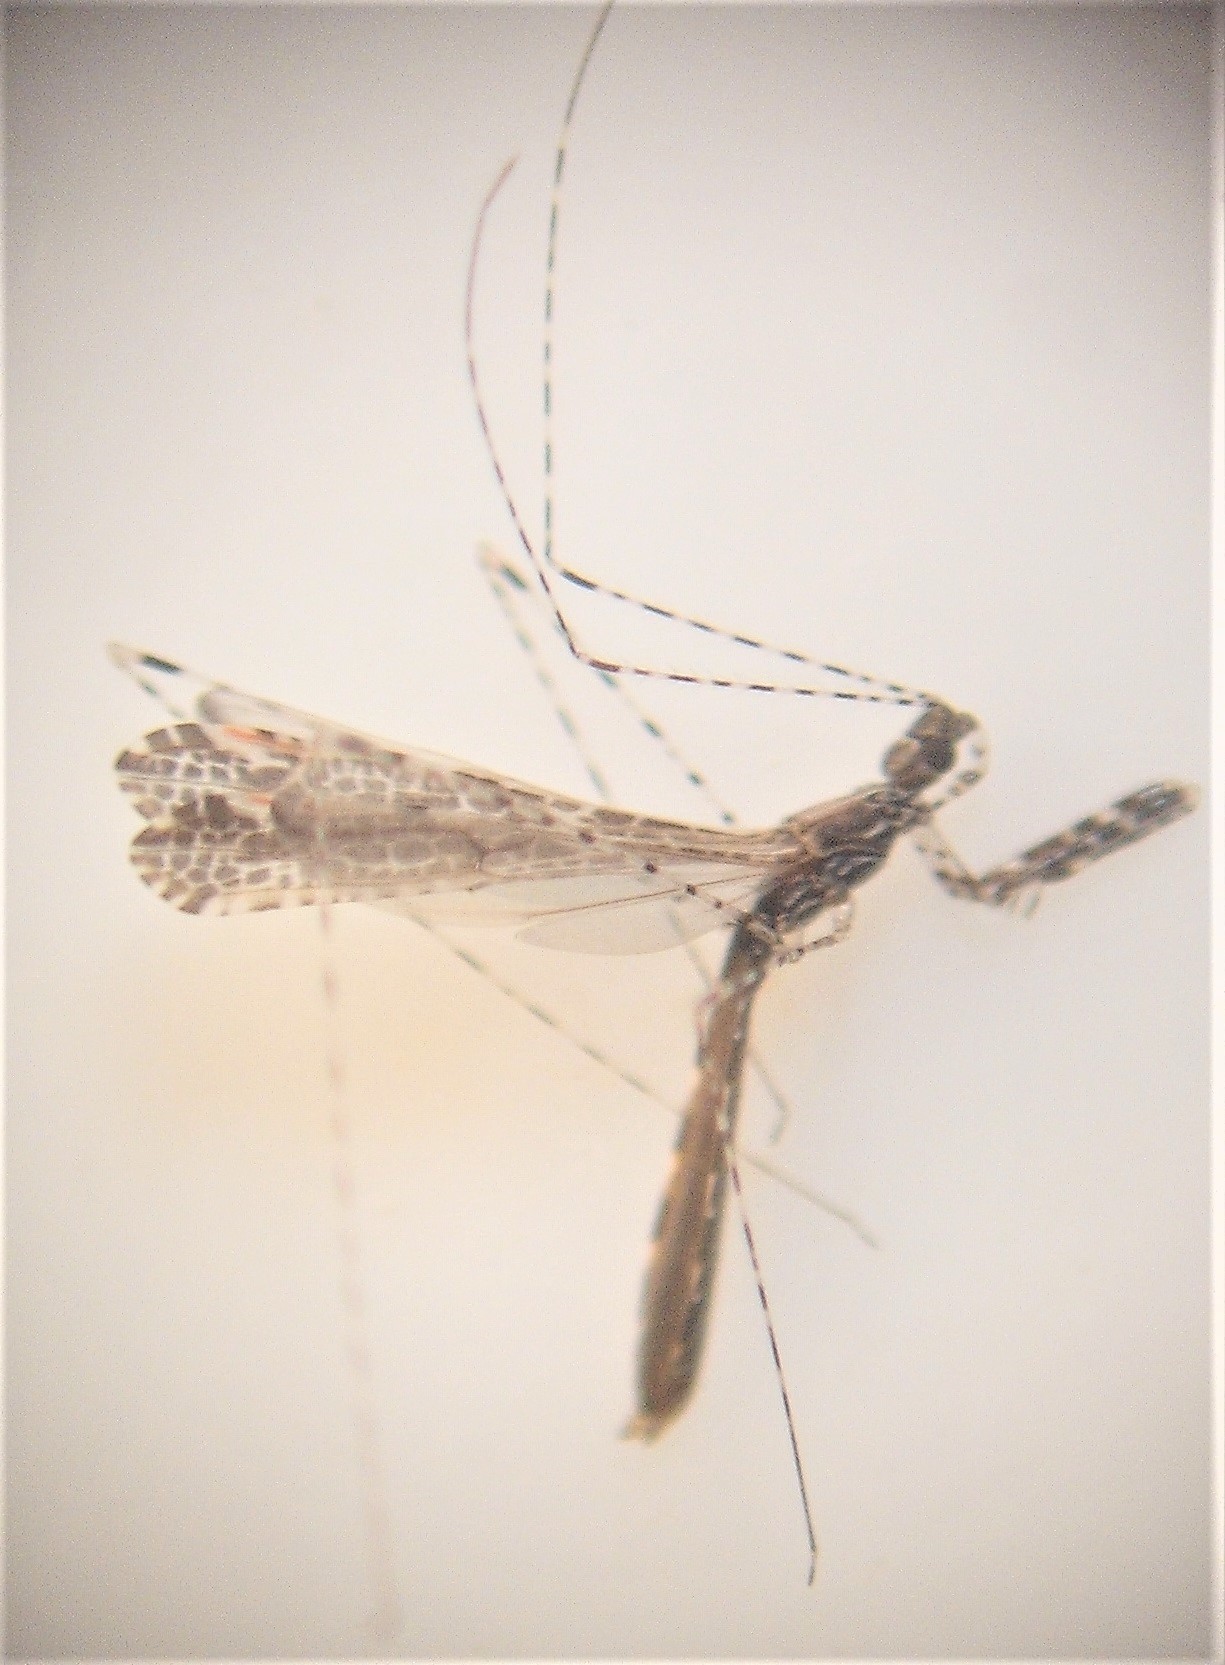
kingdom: Animalia
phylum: Arthropoda
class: Insecta
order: Hemiptera
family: Reduviidae
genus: Empicoris
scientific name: Empicoris rubromaculatus
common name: Thread-legged bug
